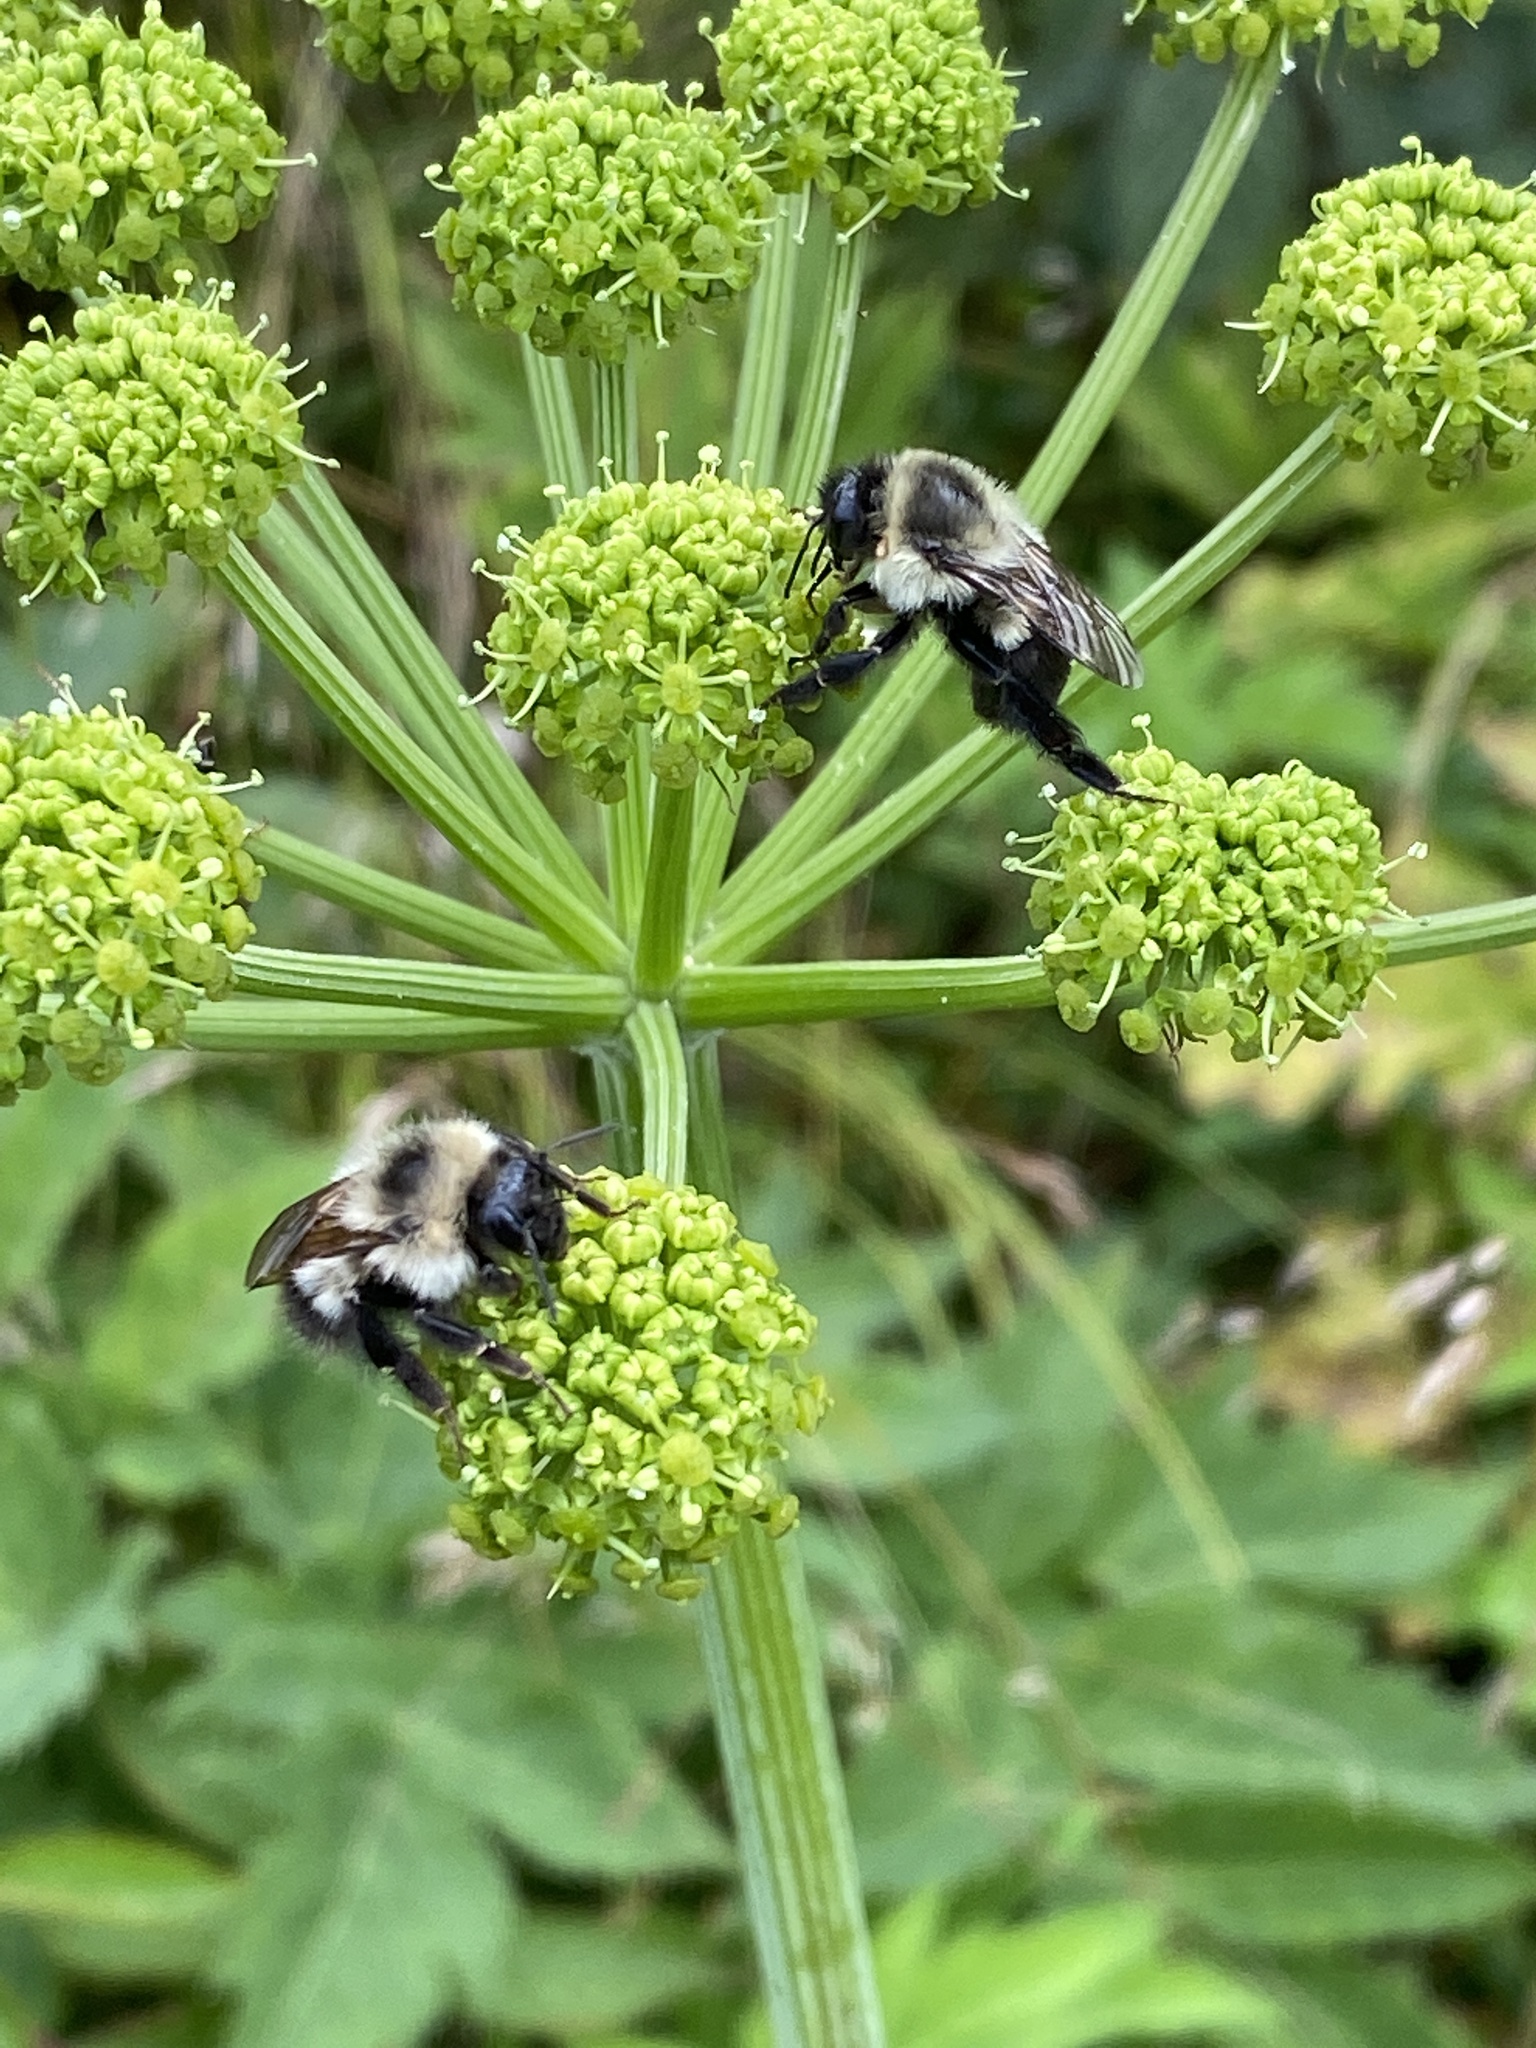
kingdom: Animalia
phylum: Arthropoda
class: Insecta
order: Hymenoptera
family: Apidae
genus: Bombus
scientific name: Bombus impatiens
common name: Common eastern bumble bee
